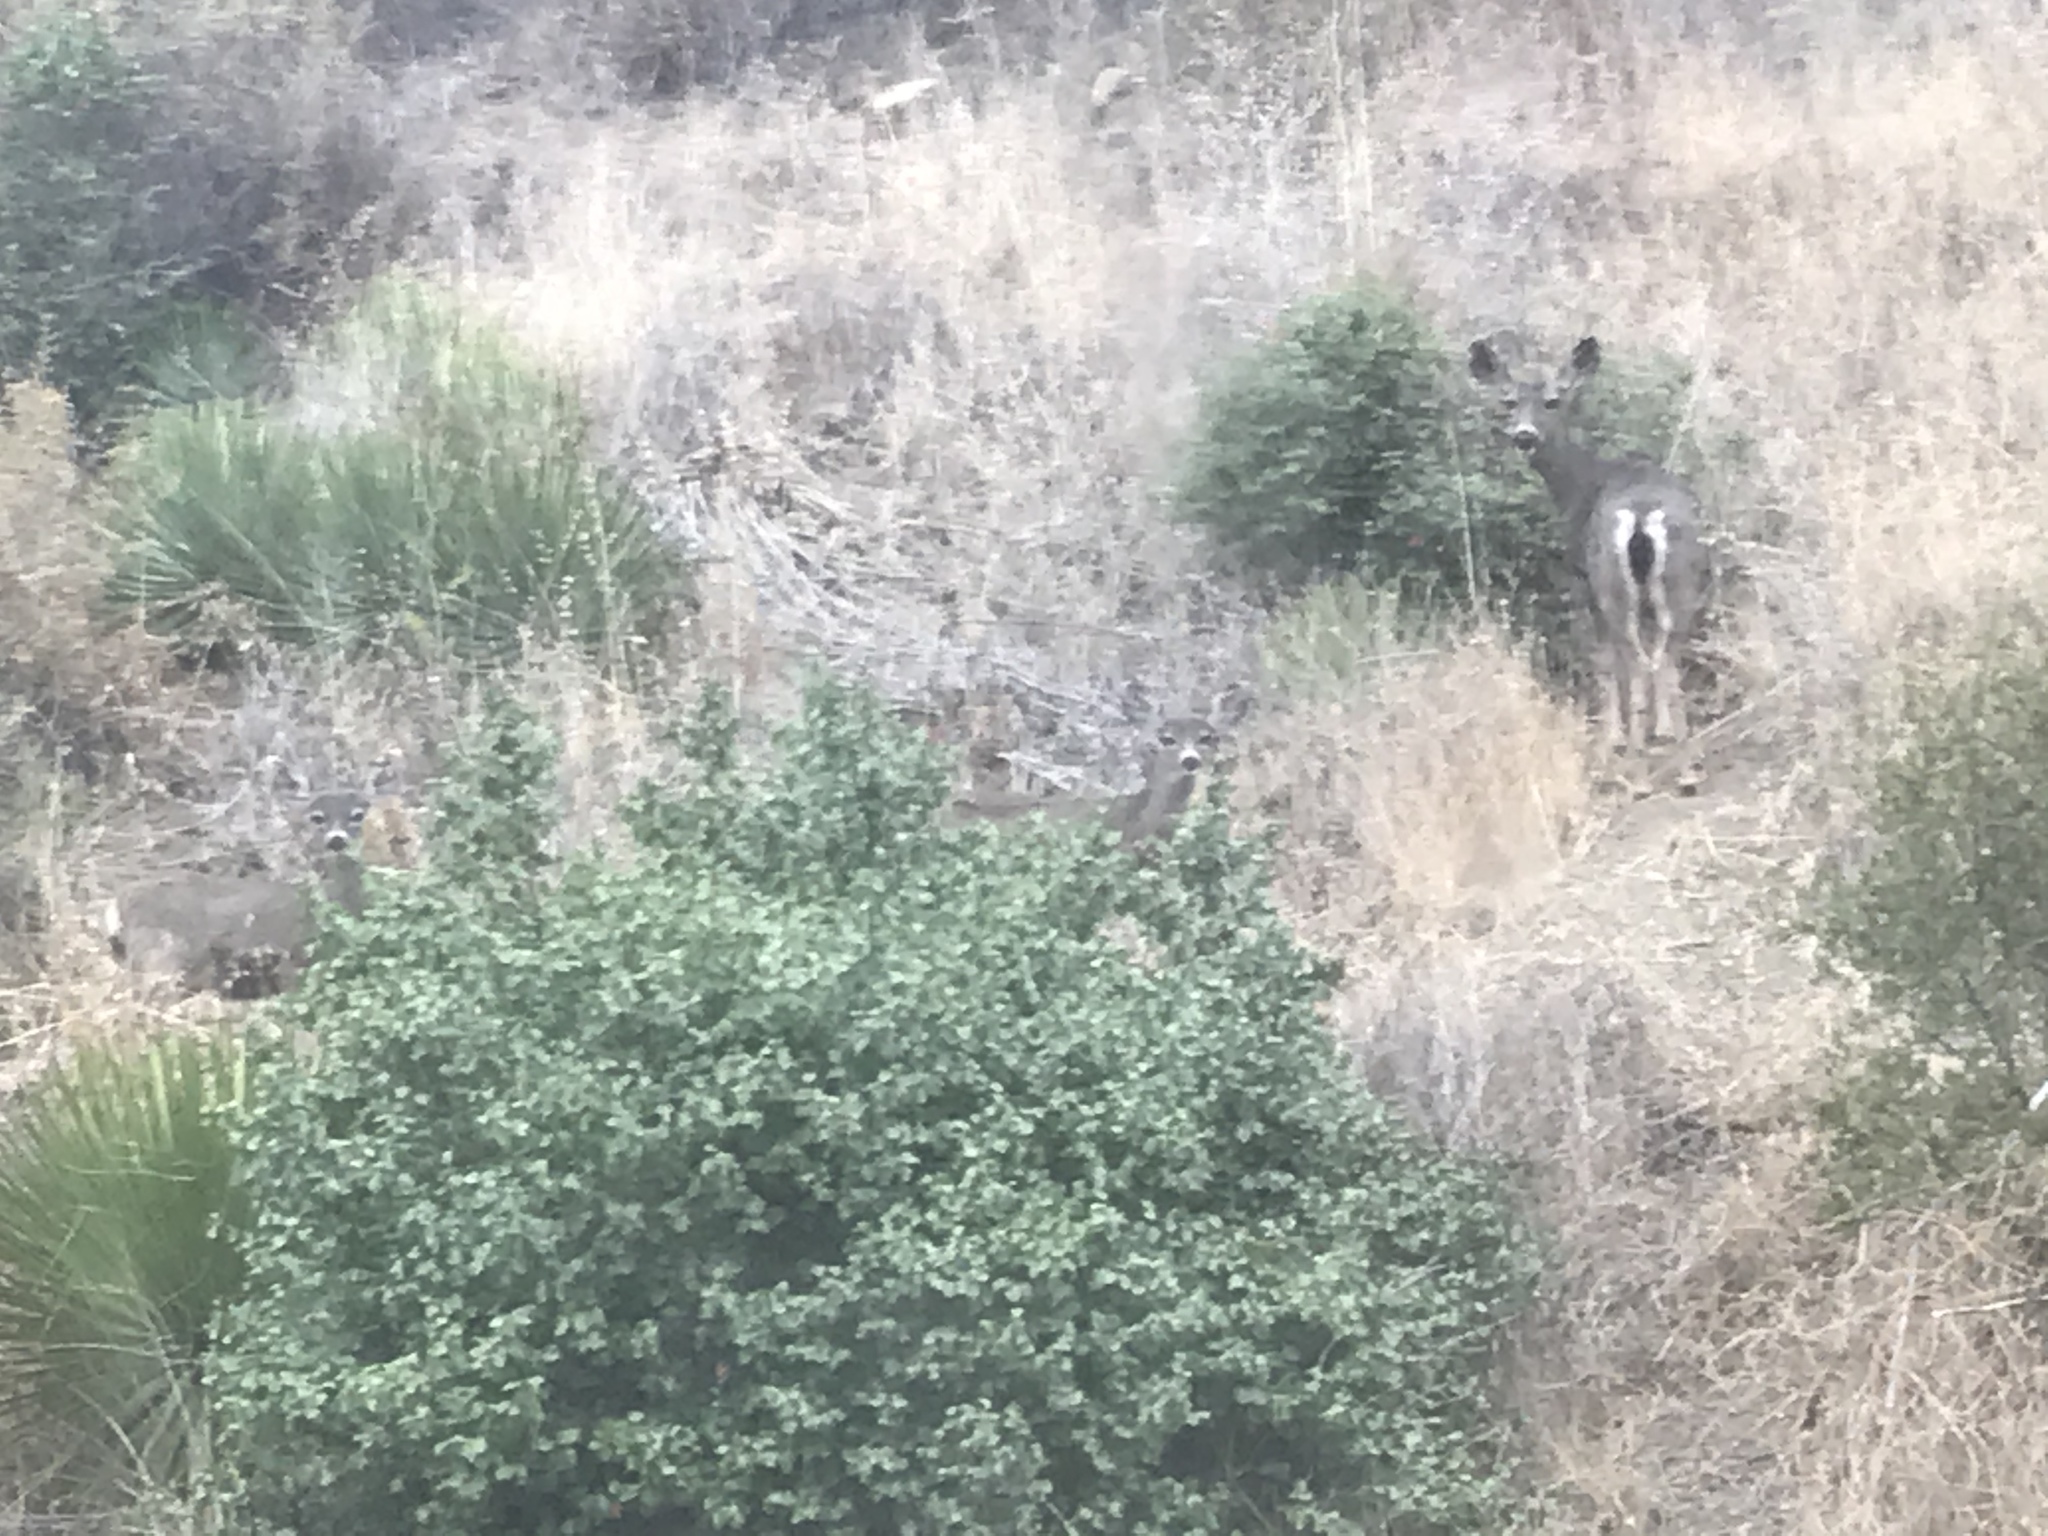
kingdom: Animalia
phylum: Chordata
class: Mammalia
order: Artiodactyla
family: Cervidae
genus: Odocoileus
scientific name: Odocoileus hemionus
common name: Mule deer
